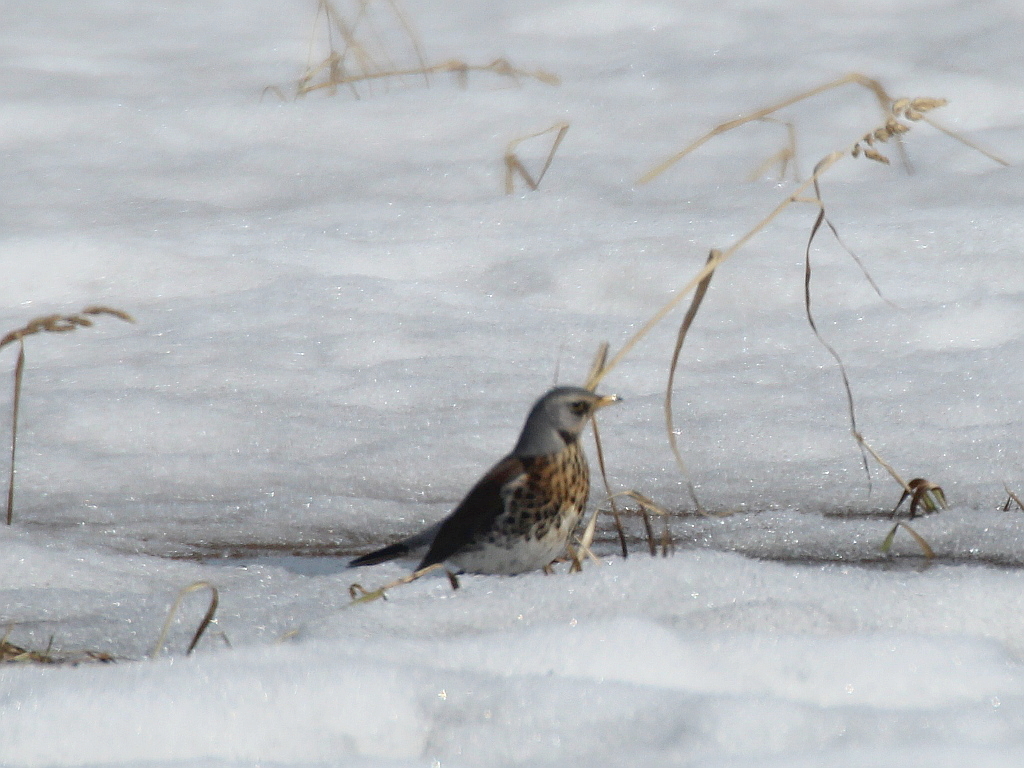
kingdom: Animalia
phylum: Chordata
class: Aves
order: Passeriformes
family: Turdidae
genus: Turdus
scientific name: Turdus pilaris
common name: Fieldfare
